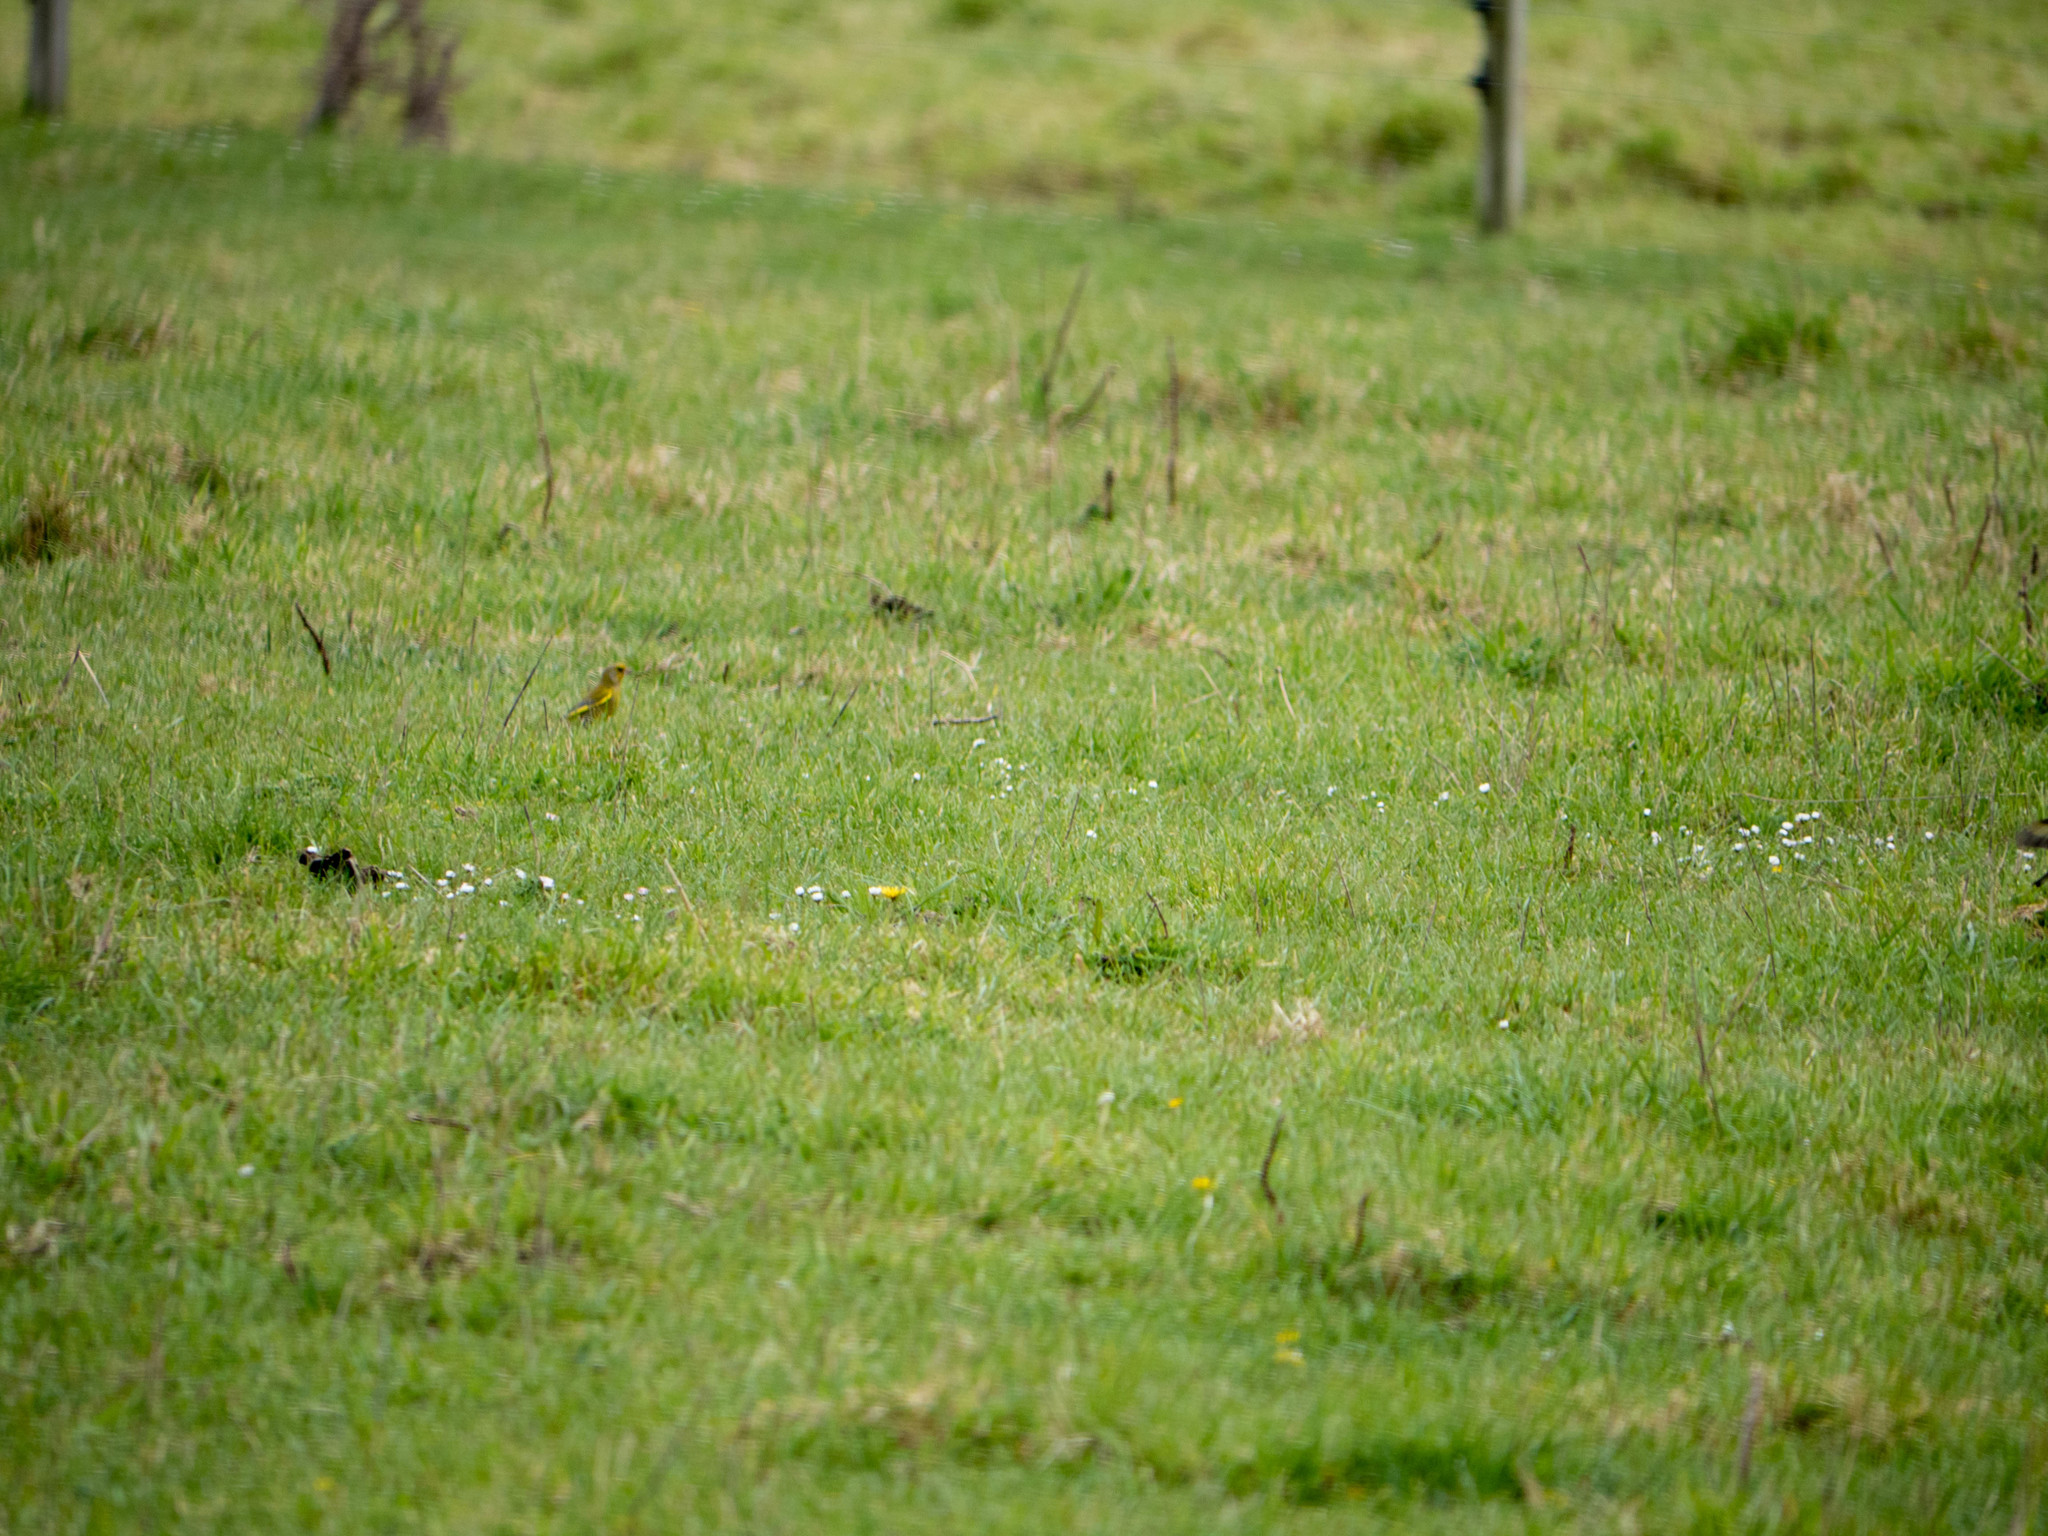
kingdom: Plantae
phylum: Tracheophyta
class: Liliopsida
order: Poales
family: Poaceae
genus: Chloris
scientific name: Chloris chloris
